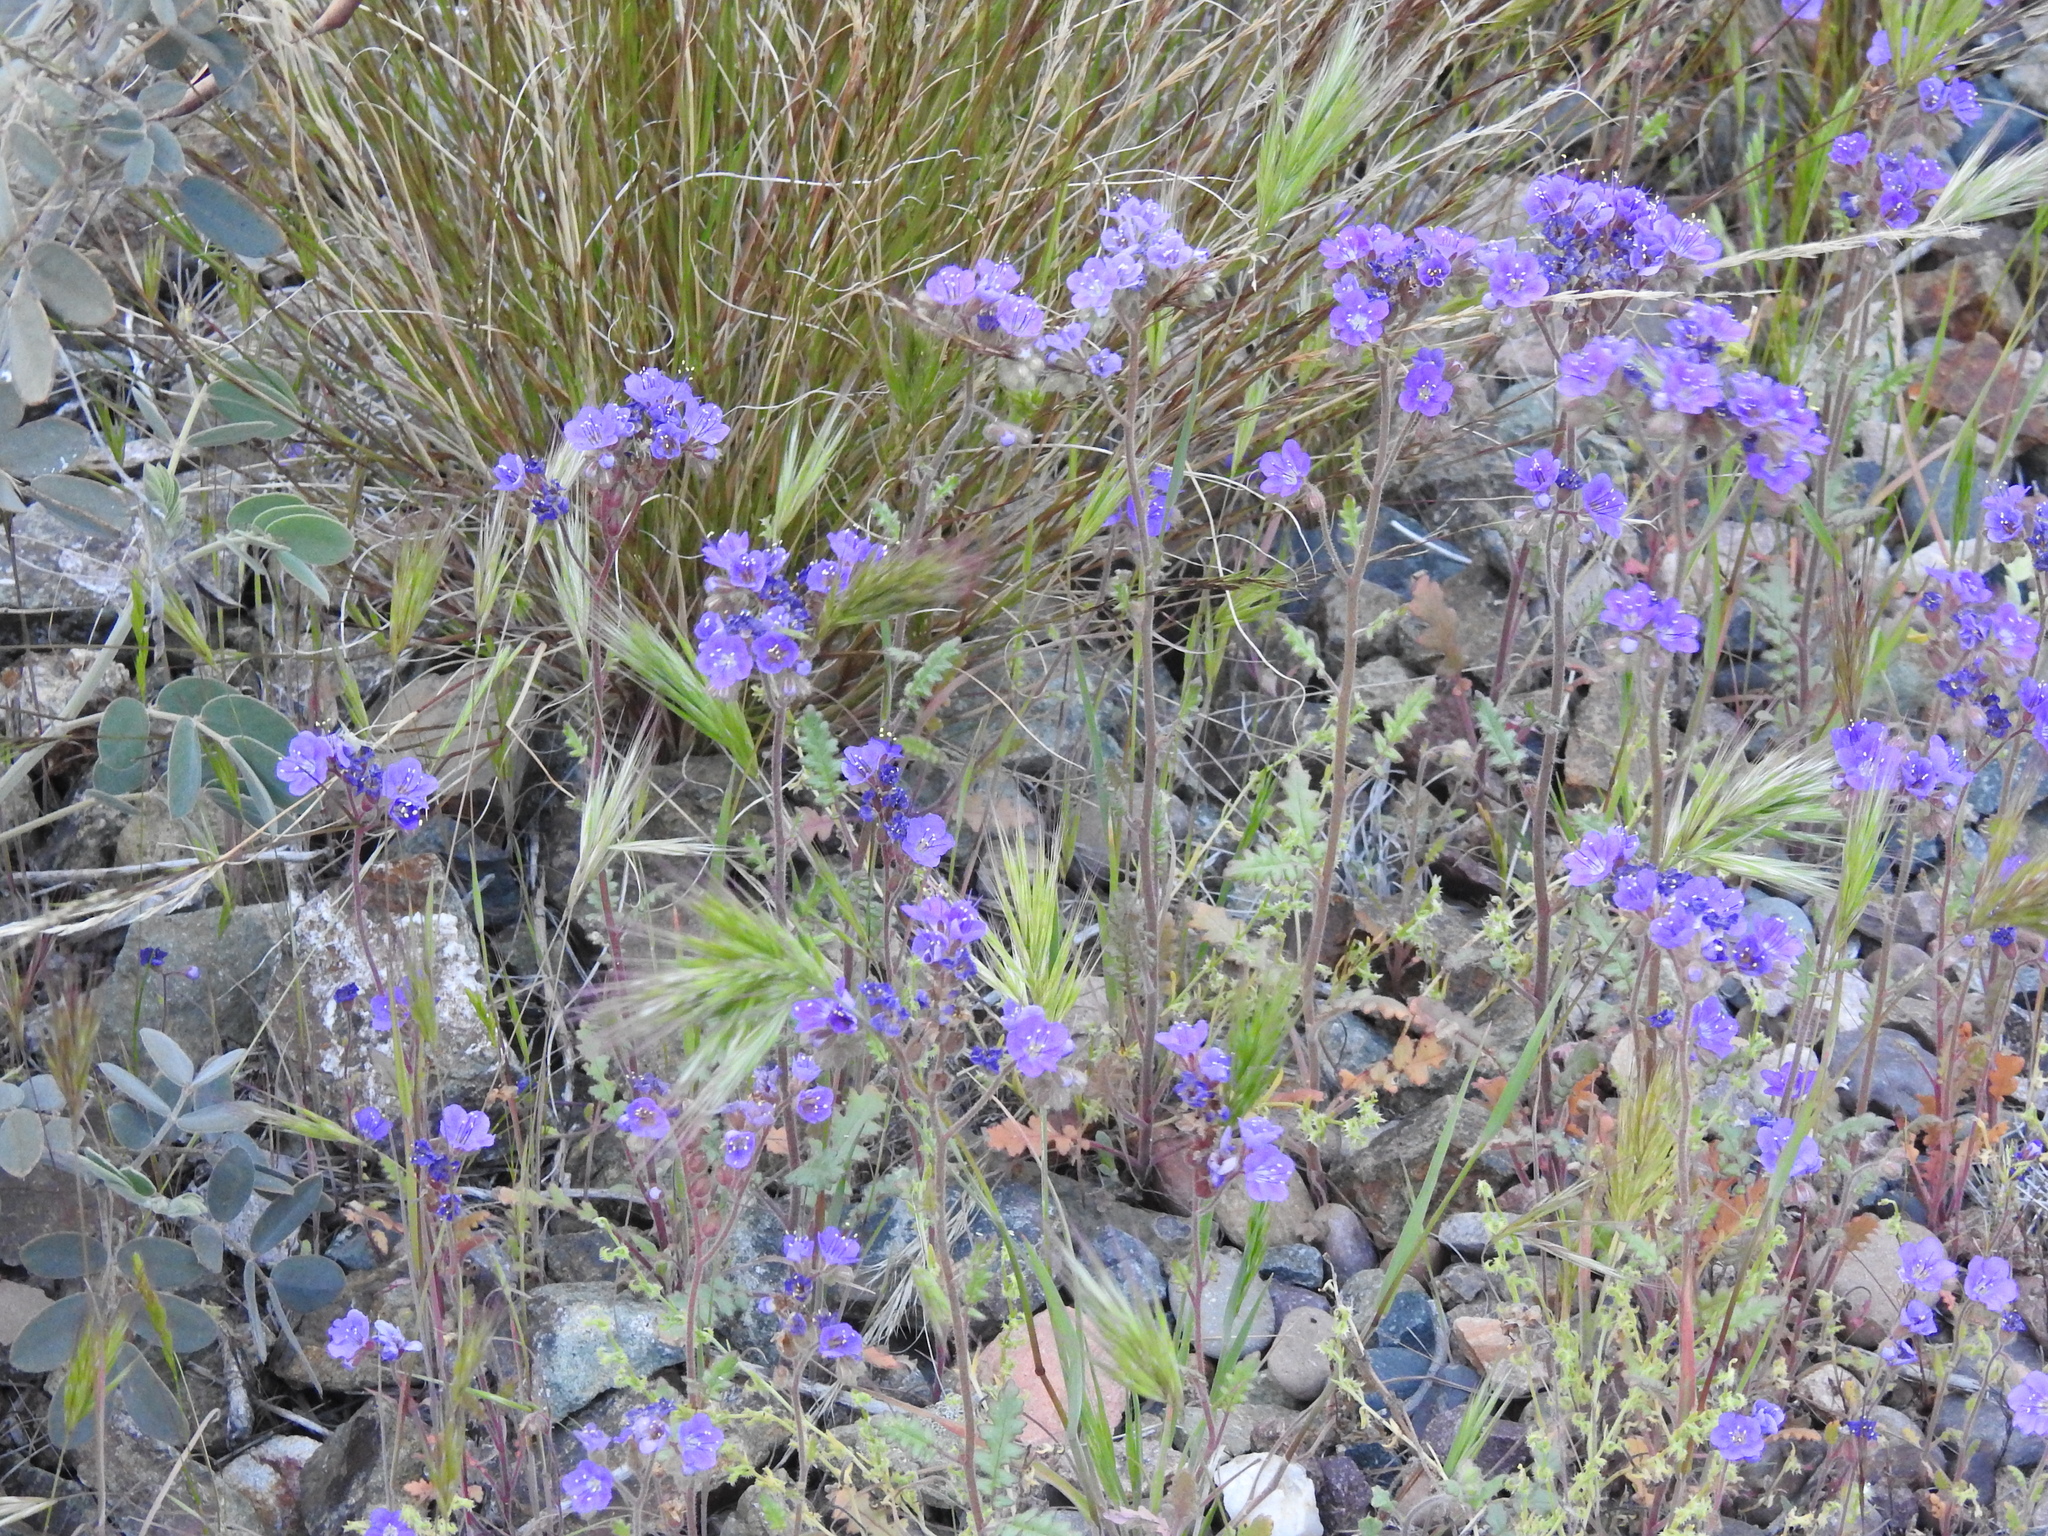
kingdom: Plantae
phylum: Tracheophyta
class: Magnoliopsida
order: Boraginales
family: Hydrophyllaceae
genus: Phacelia
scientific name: Phacelia crenulata
